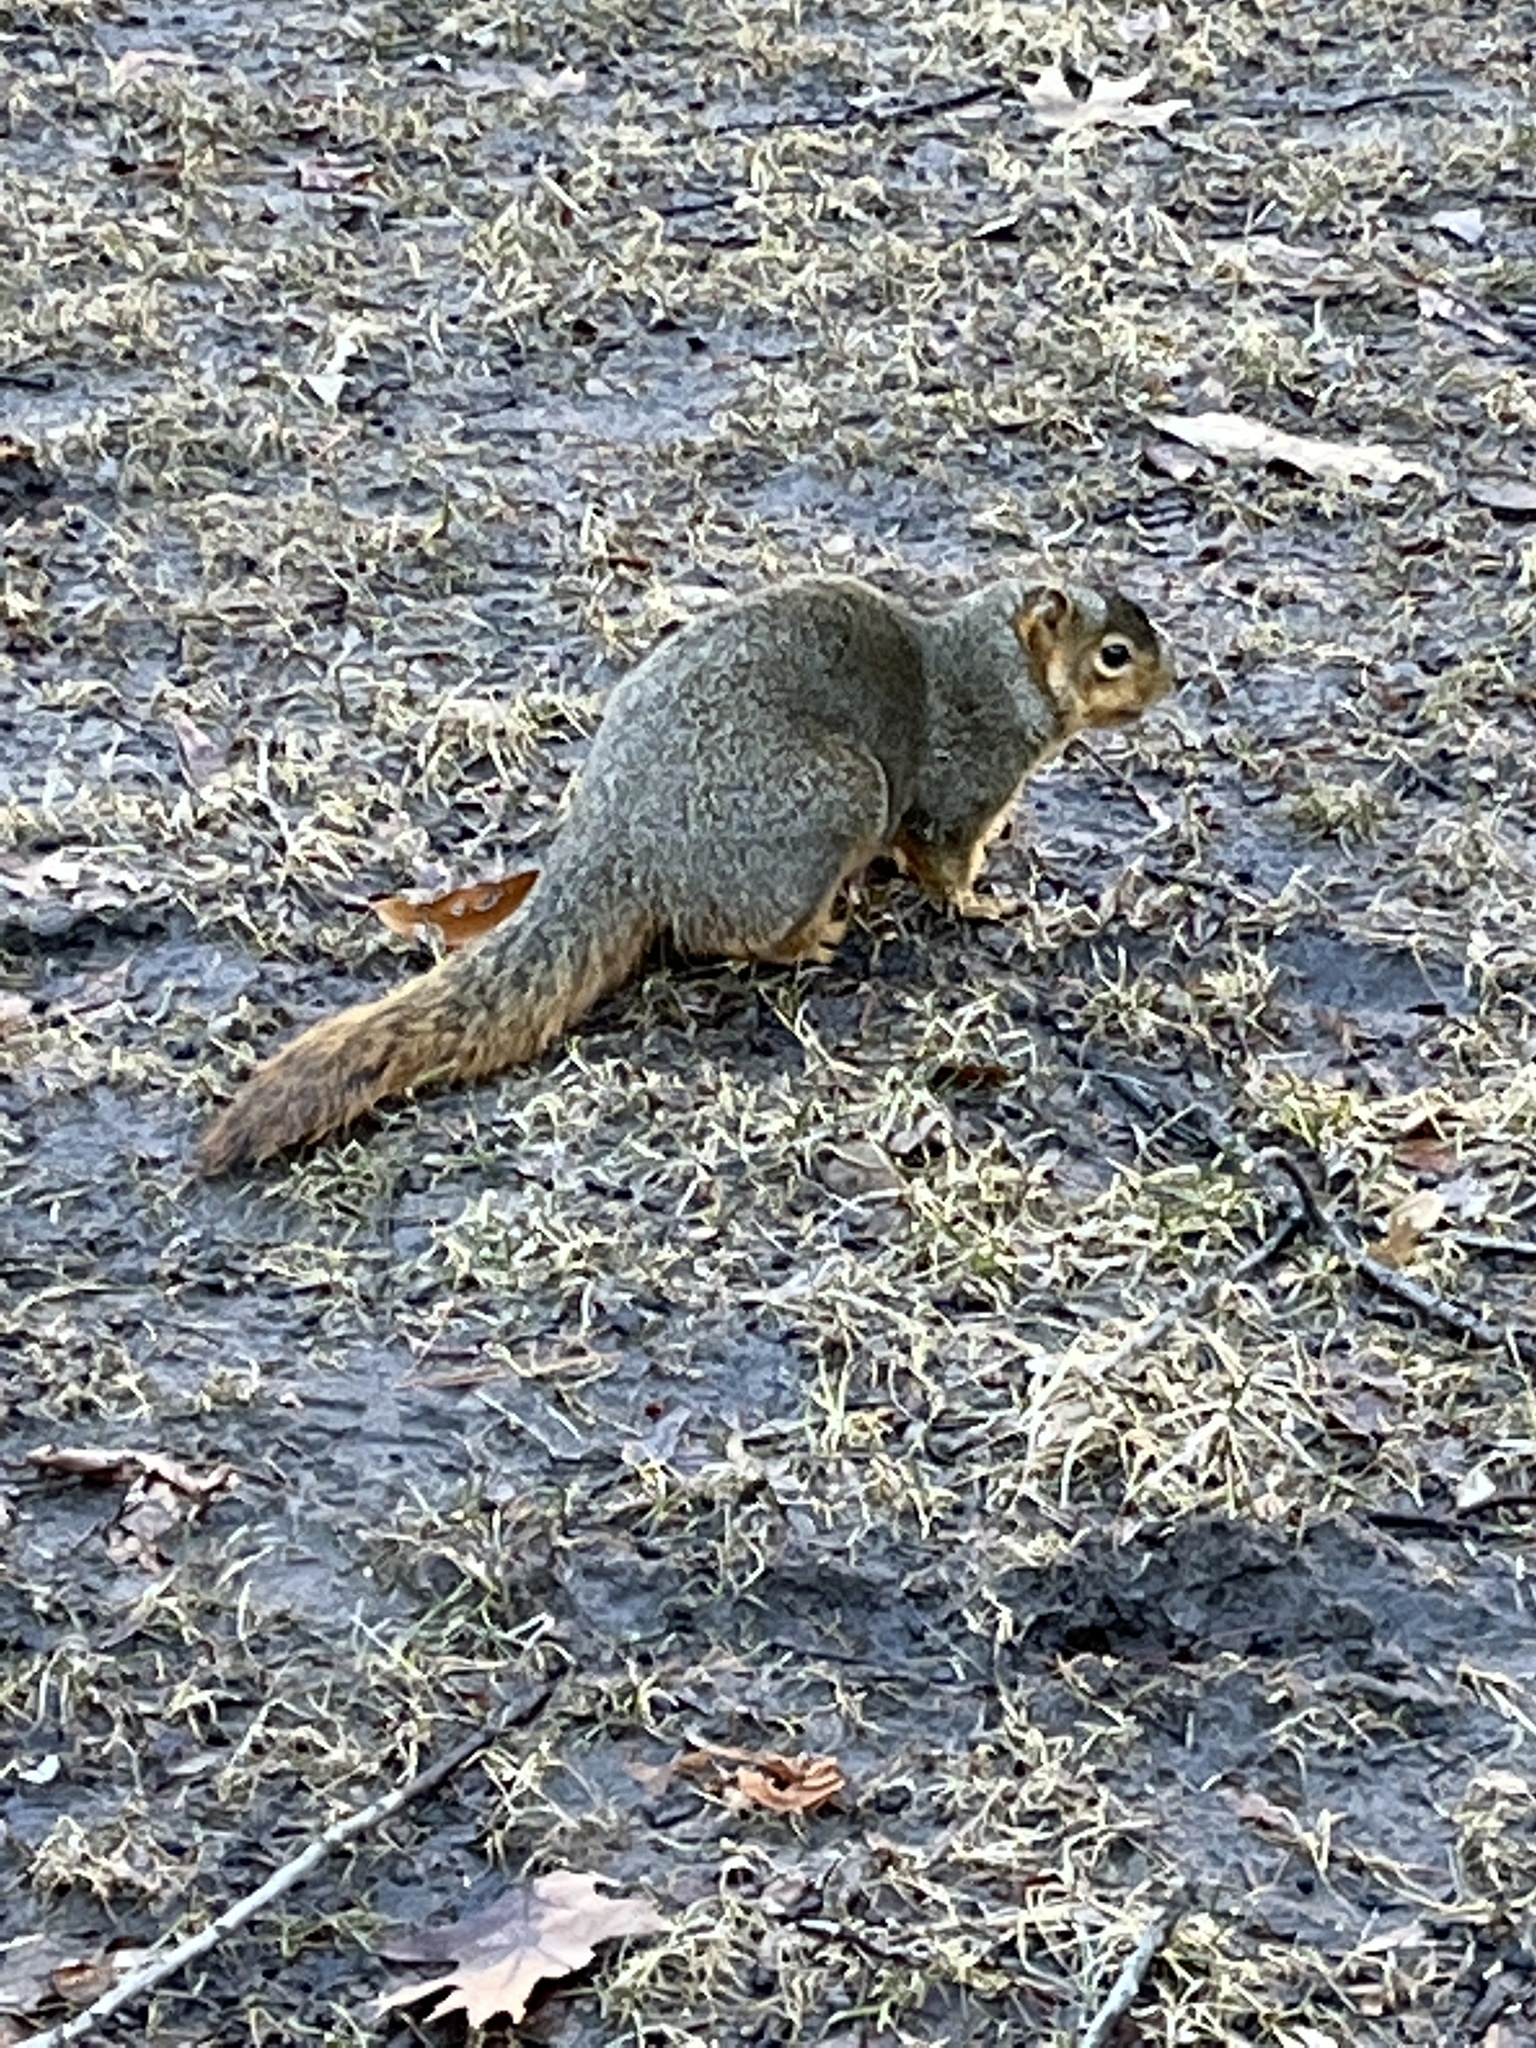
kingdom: Animalia
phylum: Chordata
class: Mammalia
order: Rodentia
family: Sciuridae
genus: Sciurus
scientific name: Sciurus niger
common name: Fox squirrel
